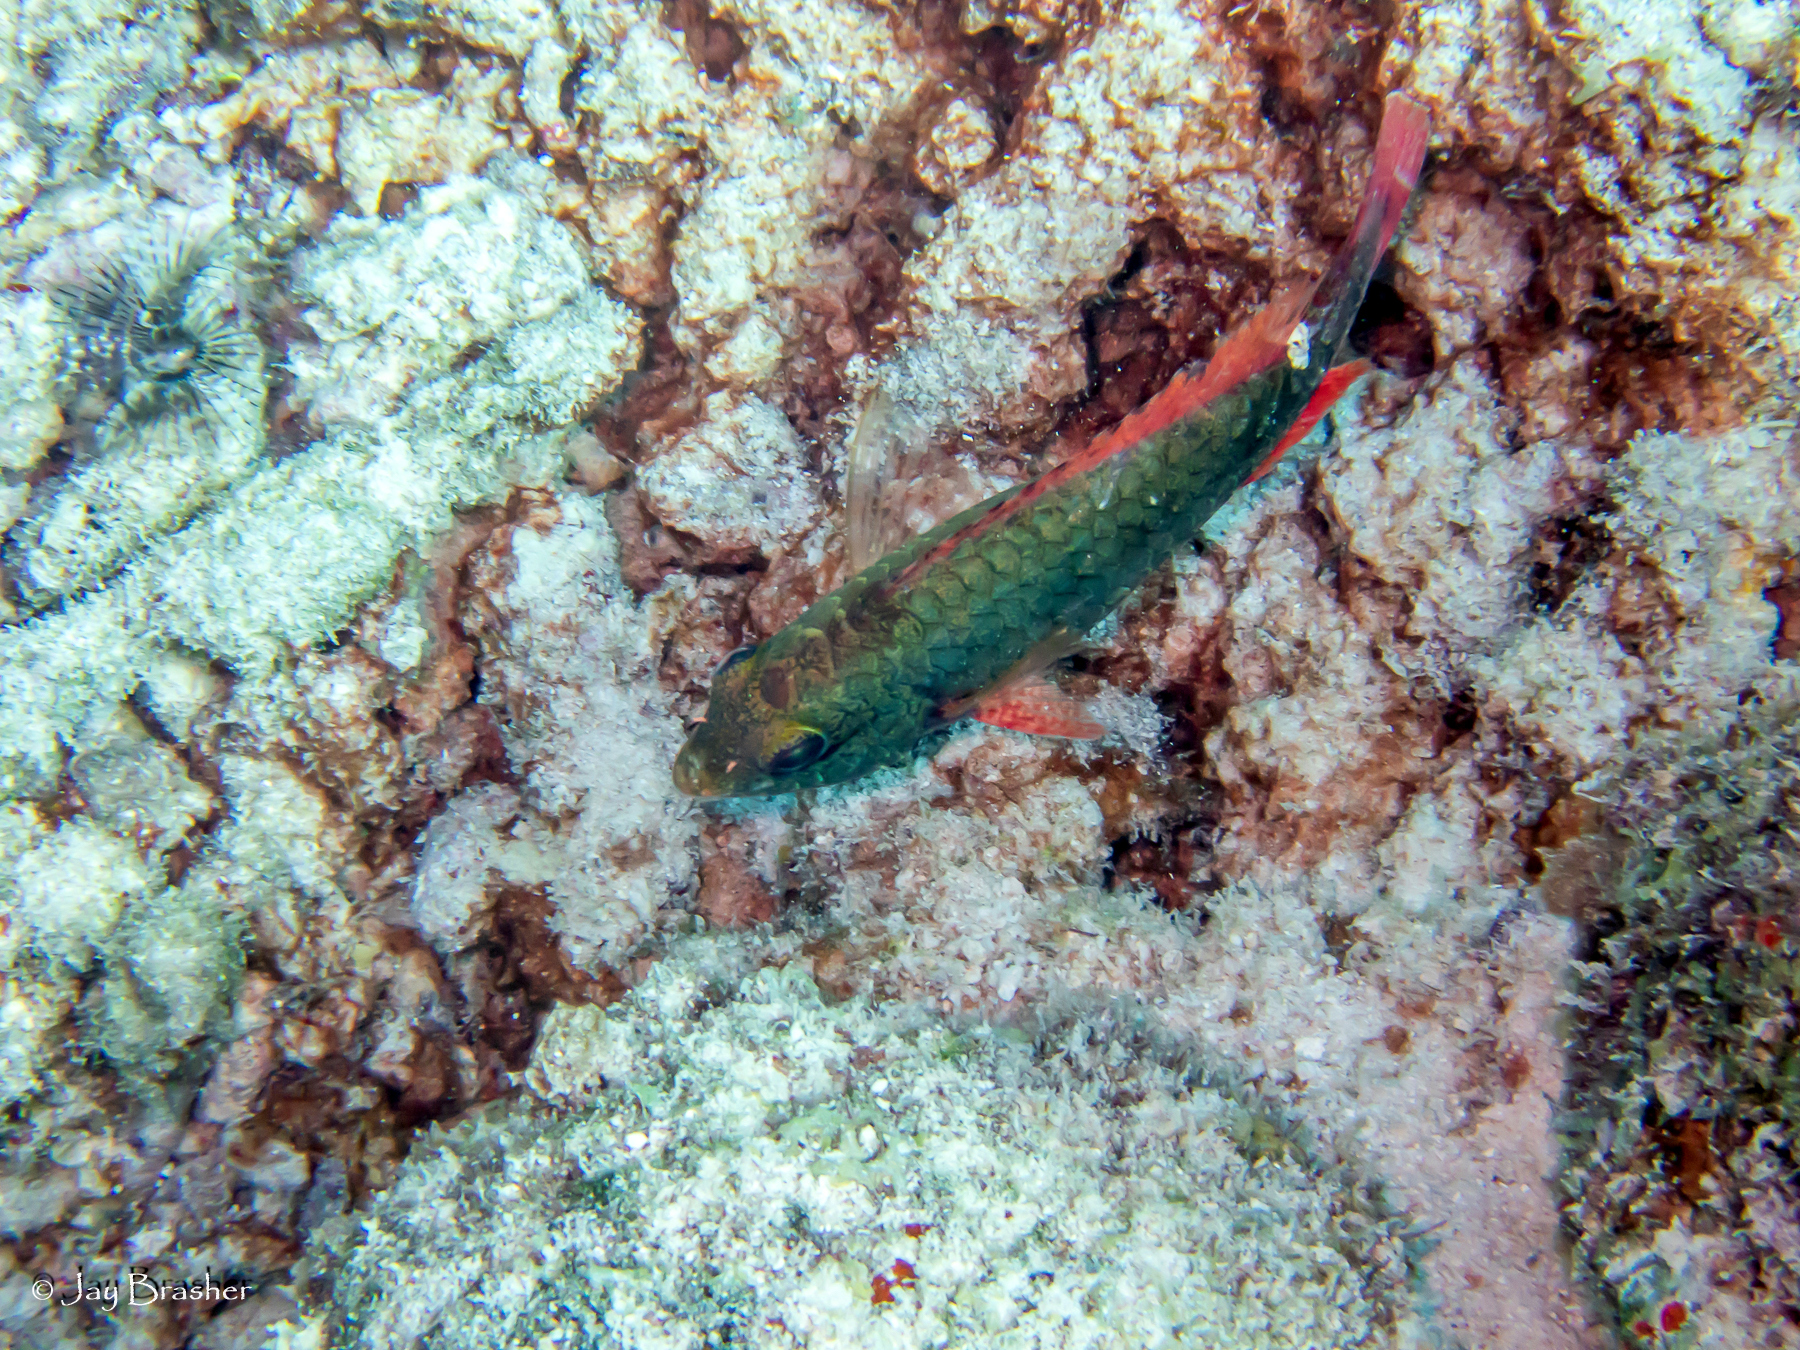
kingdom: Animalia
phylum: Chordata
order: Perciformes
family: Scaridae
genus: Sparisoma
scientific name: Sparisoma aurofrenatum
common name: Redband parrotfish
